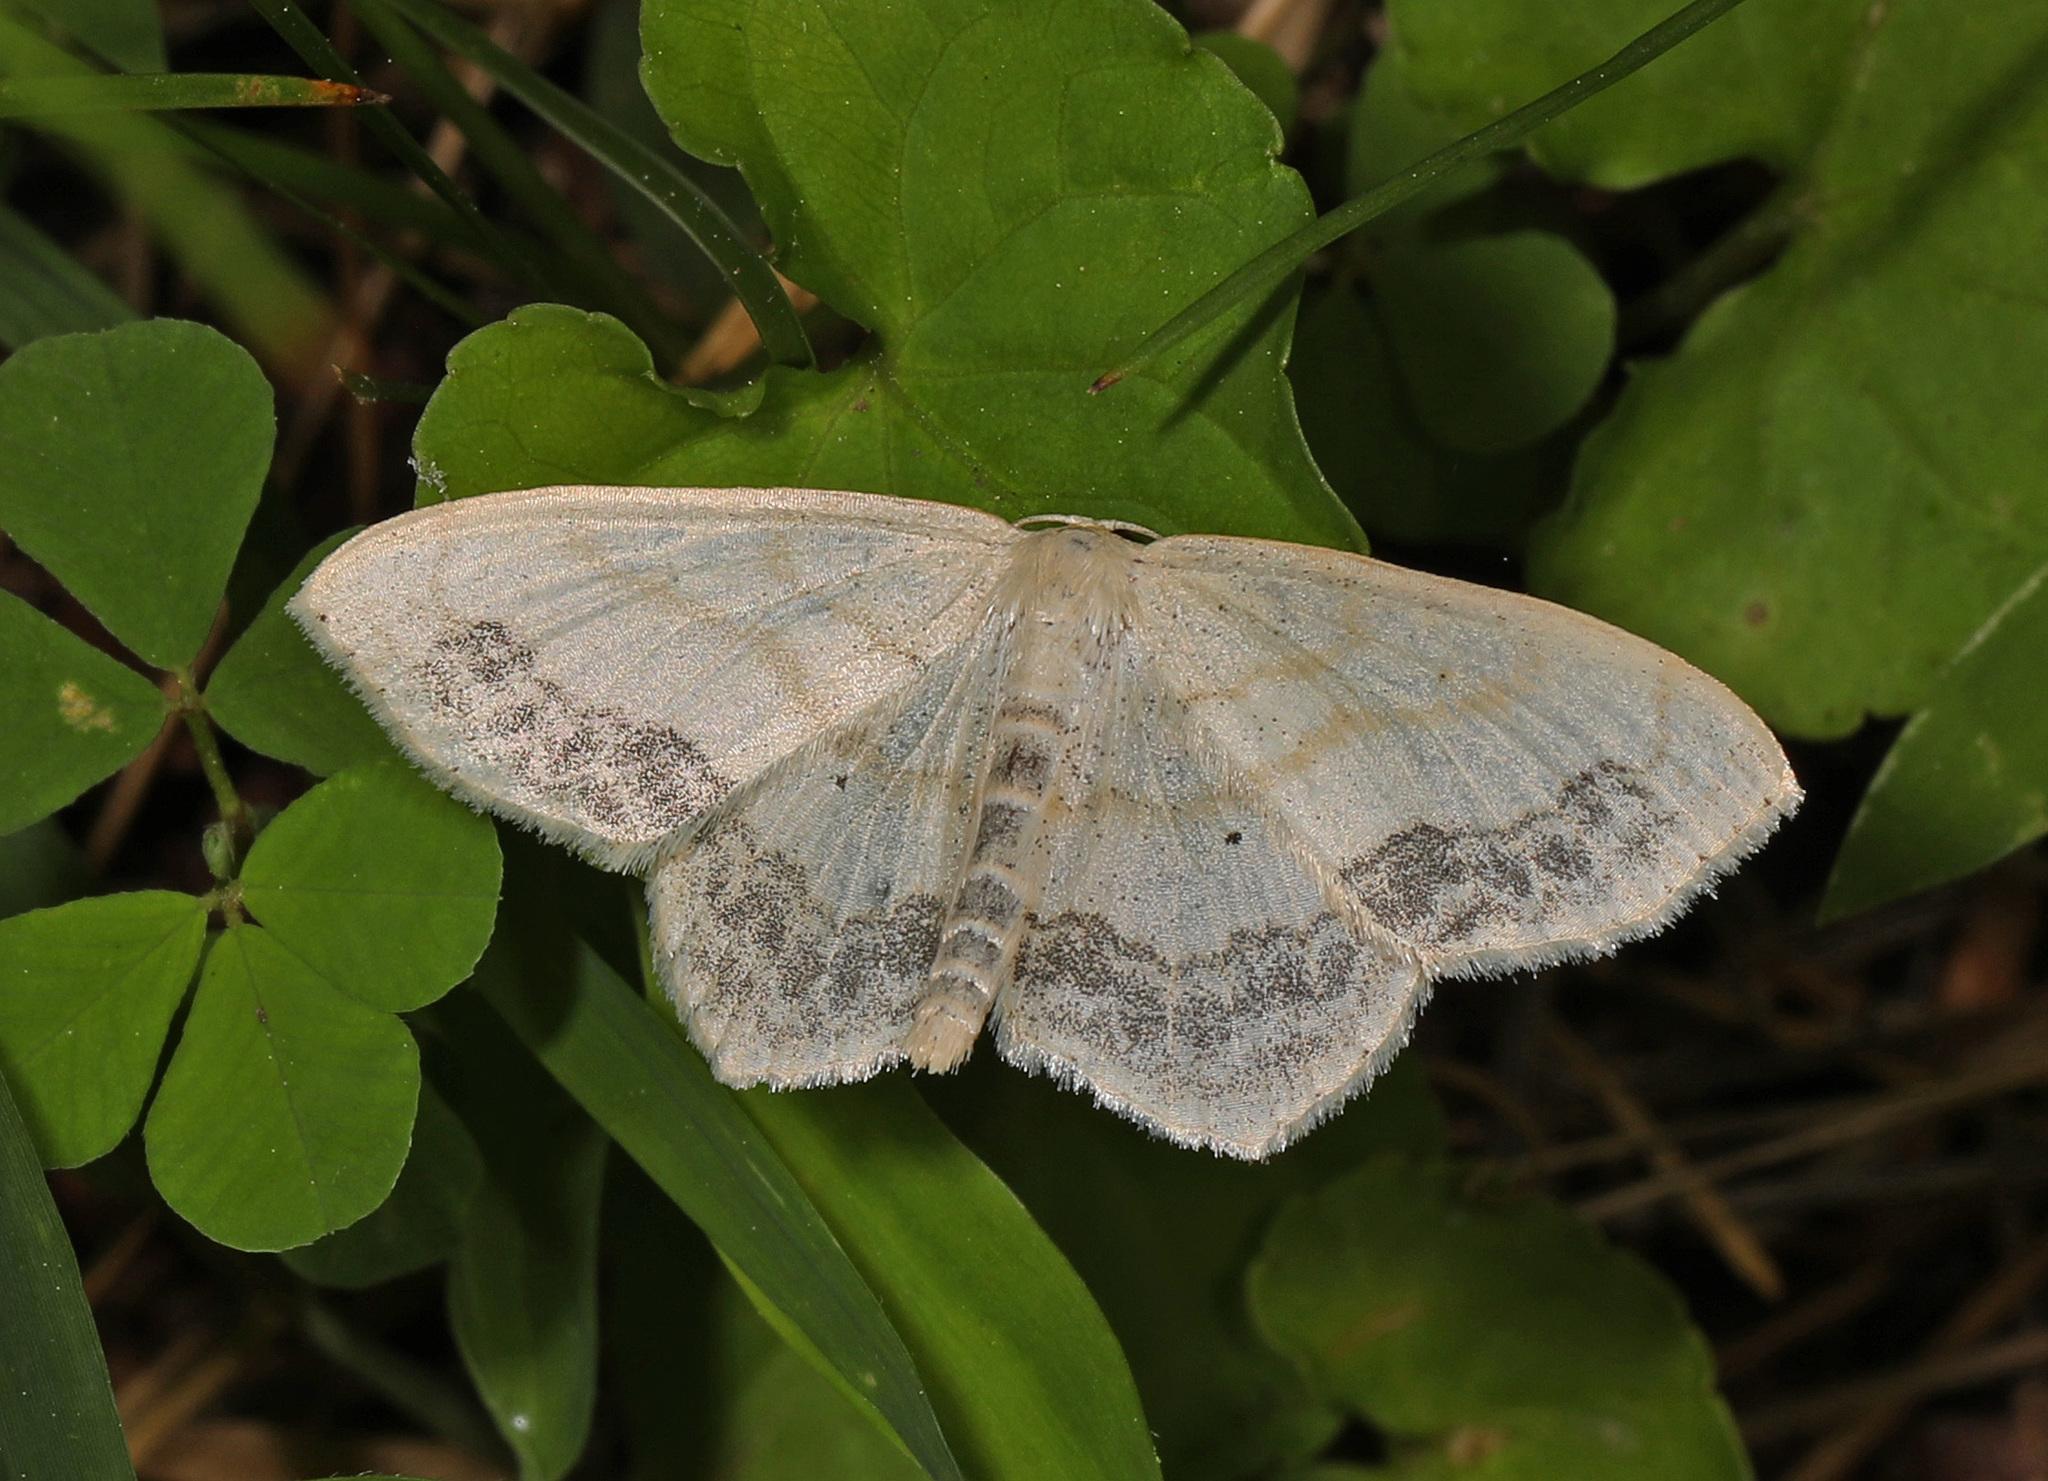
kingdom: Animalia
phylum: Arthropoda
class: Insecta
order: Lepidoptera
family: Geometridae
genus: Scopula
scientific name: Scopula limboundata
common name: Large lace border
